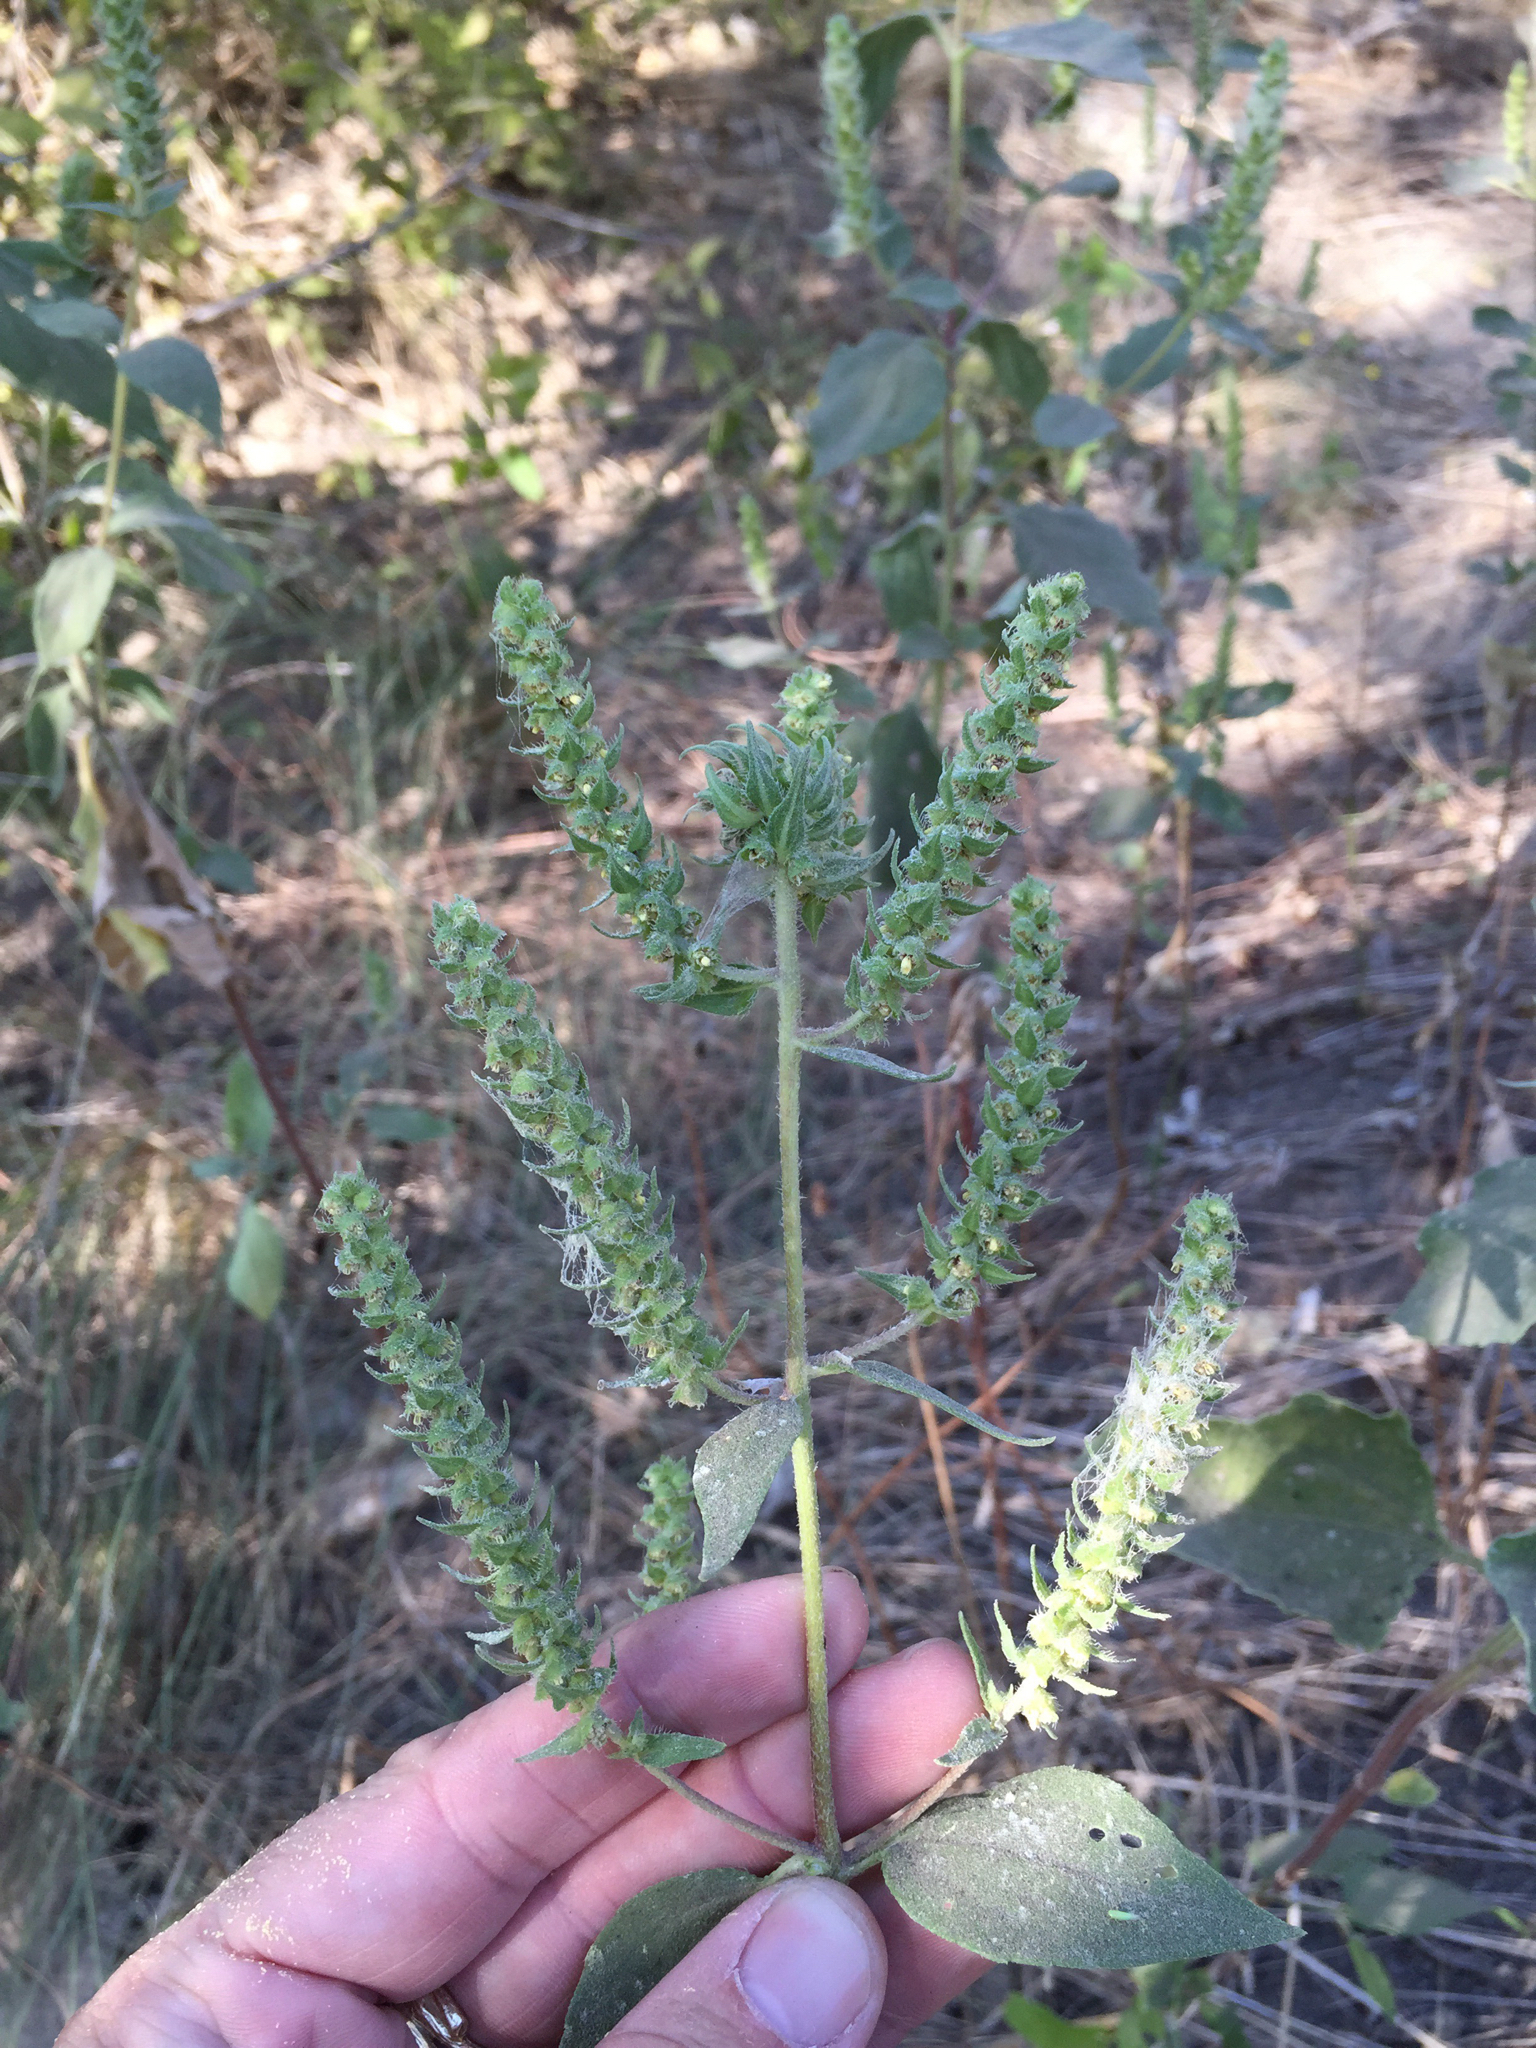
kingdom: Plantae
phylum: Tracheophyta
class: Magnoliopsida
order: Asterales
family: Asteraceae
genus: Iva
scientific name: Iva annua
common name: Marsh-elder
